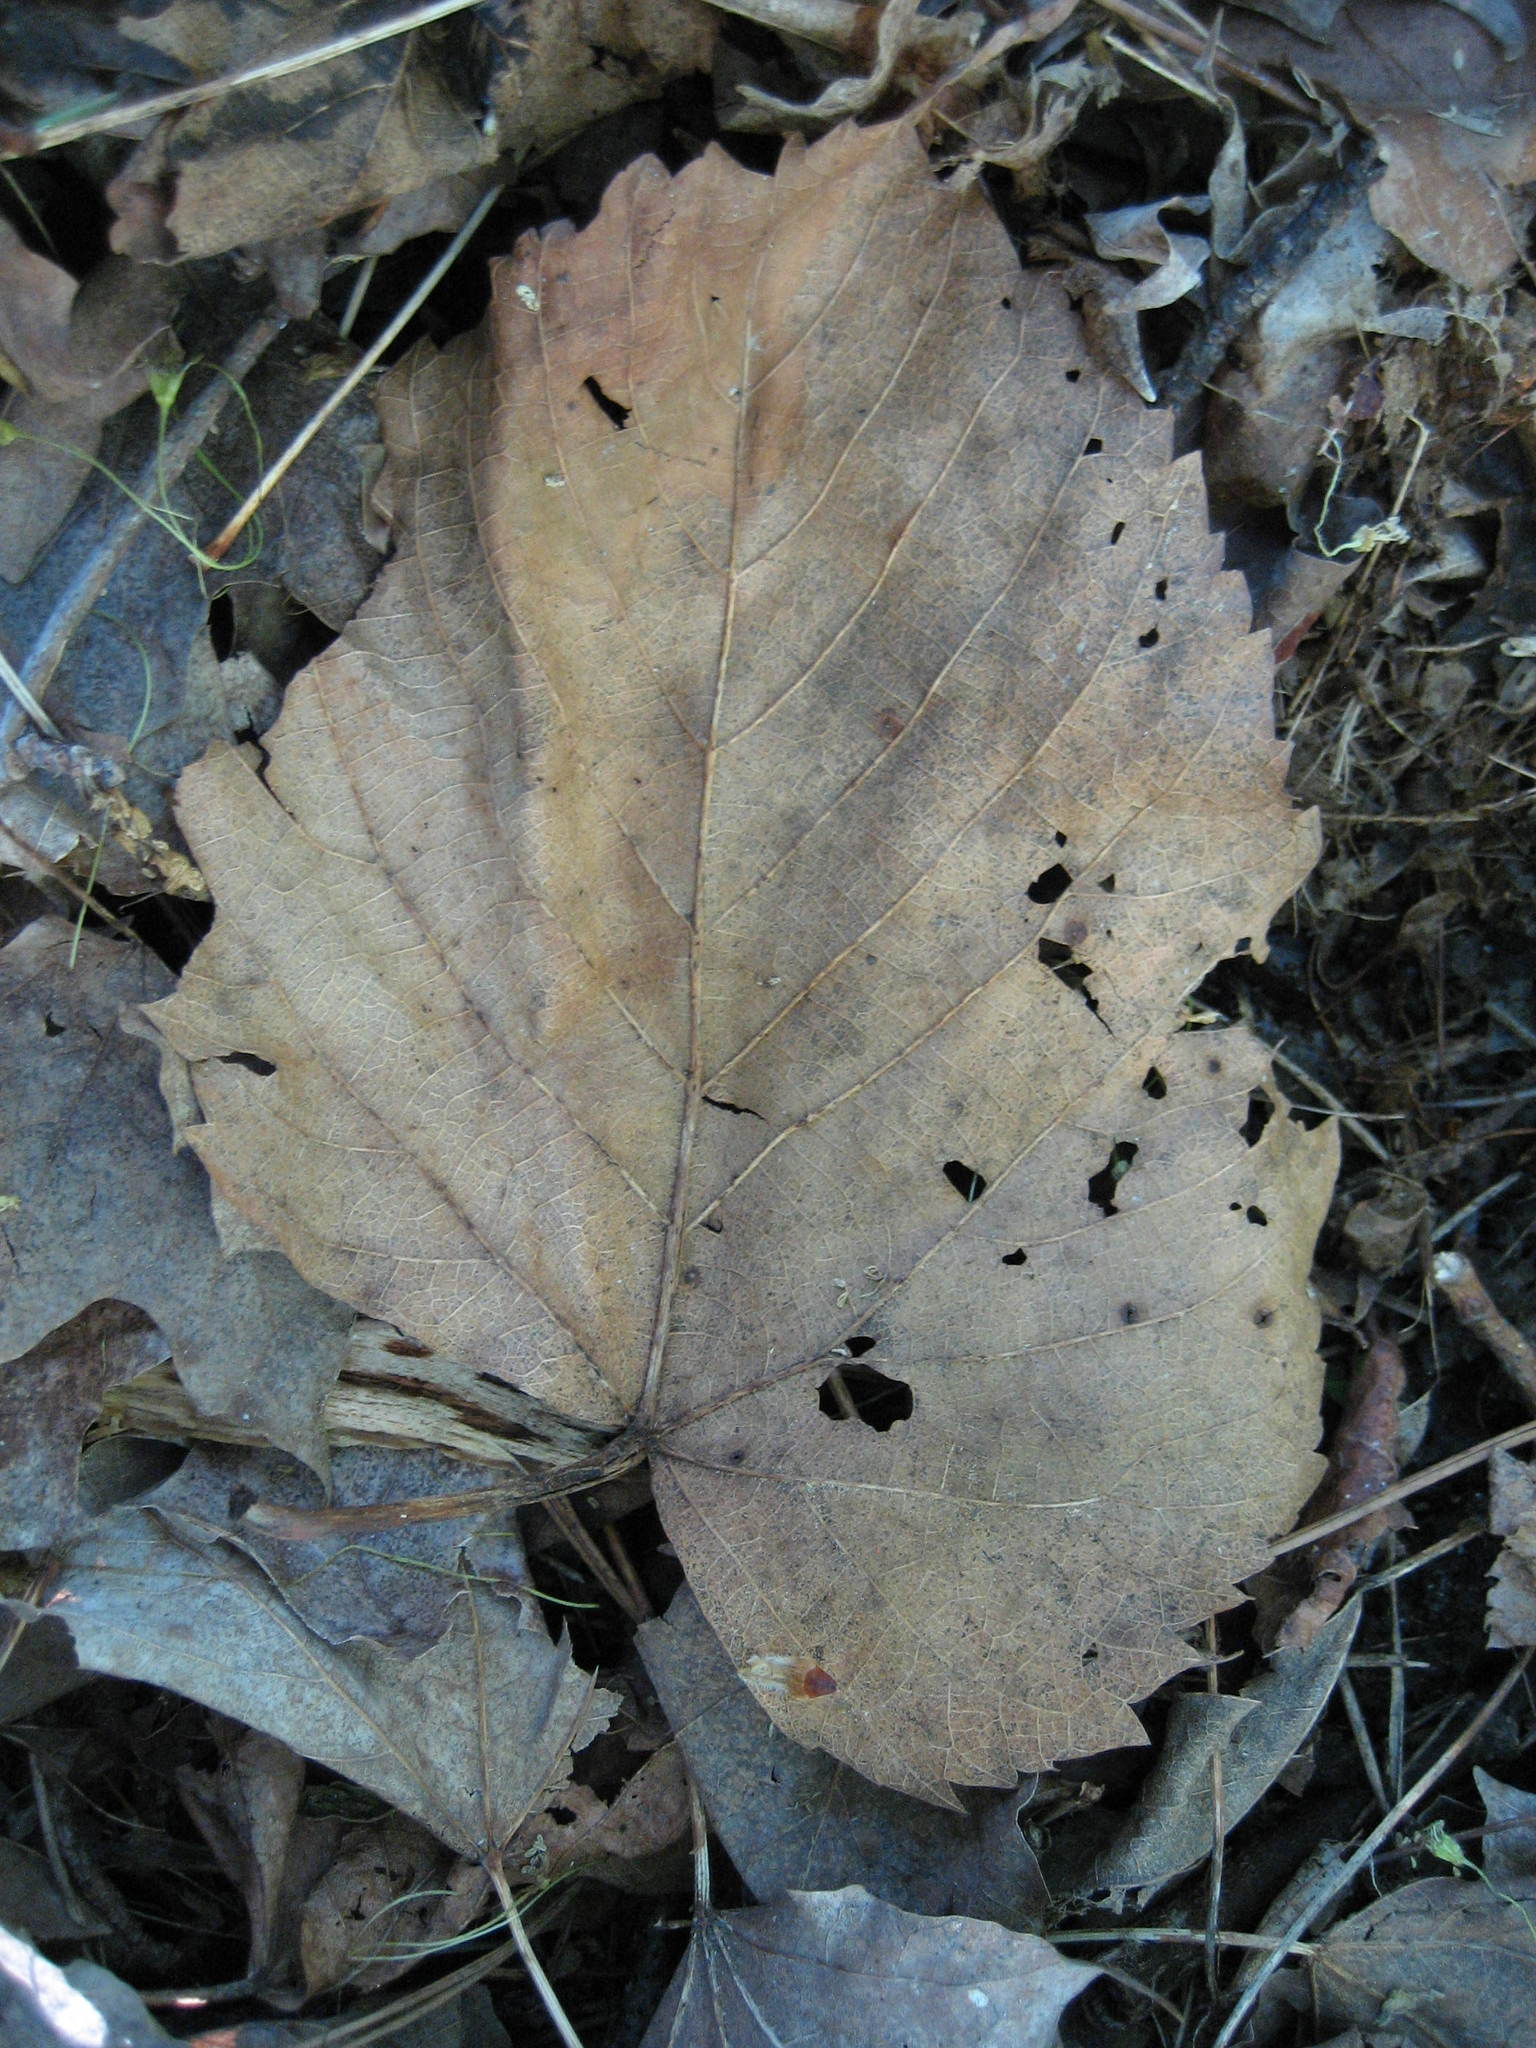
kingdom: Plantae
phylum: Tracheophyta
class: Magnoliopsida
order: Malvales
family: Malvaceae
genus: Tilia
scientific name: Tilia americana
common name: Basswood
